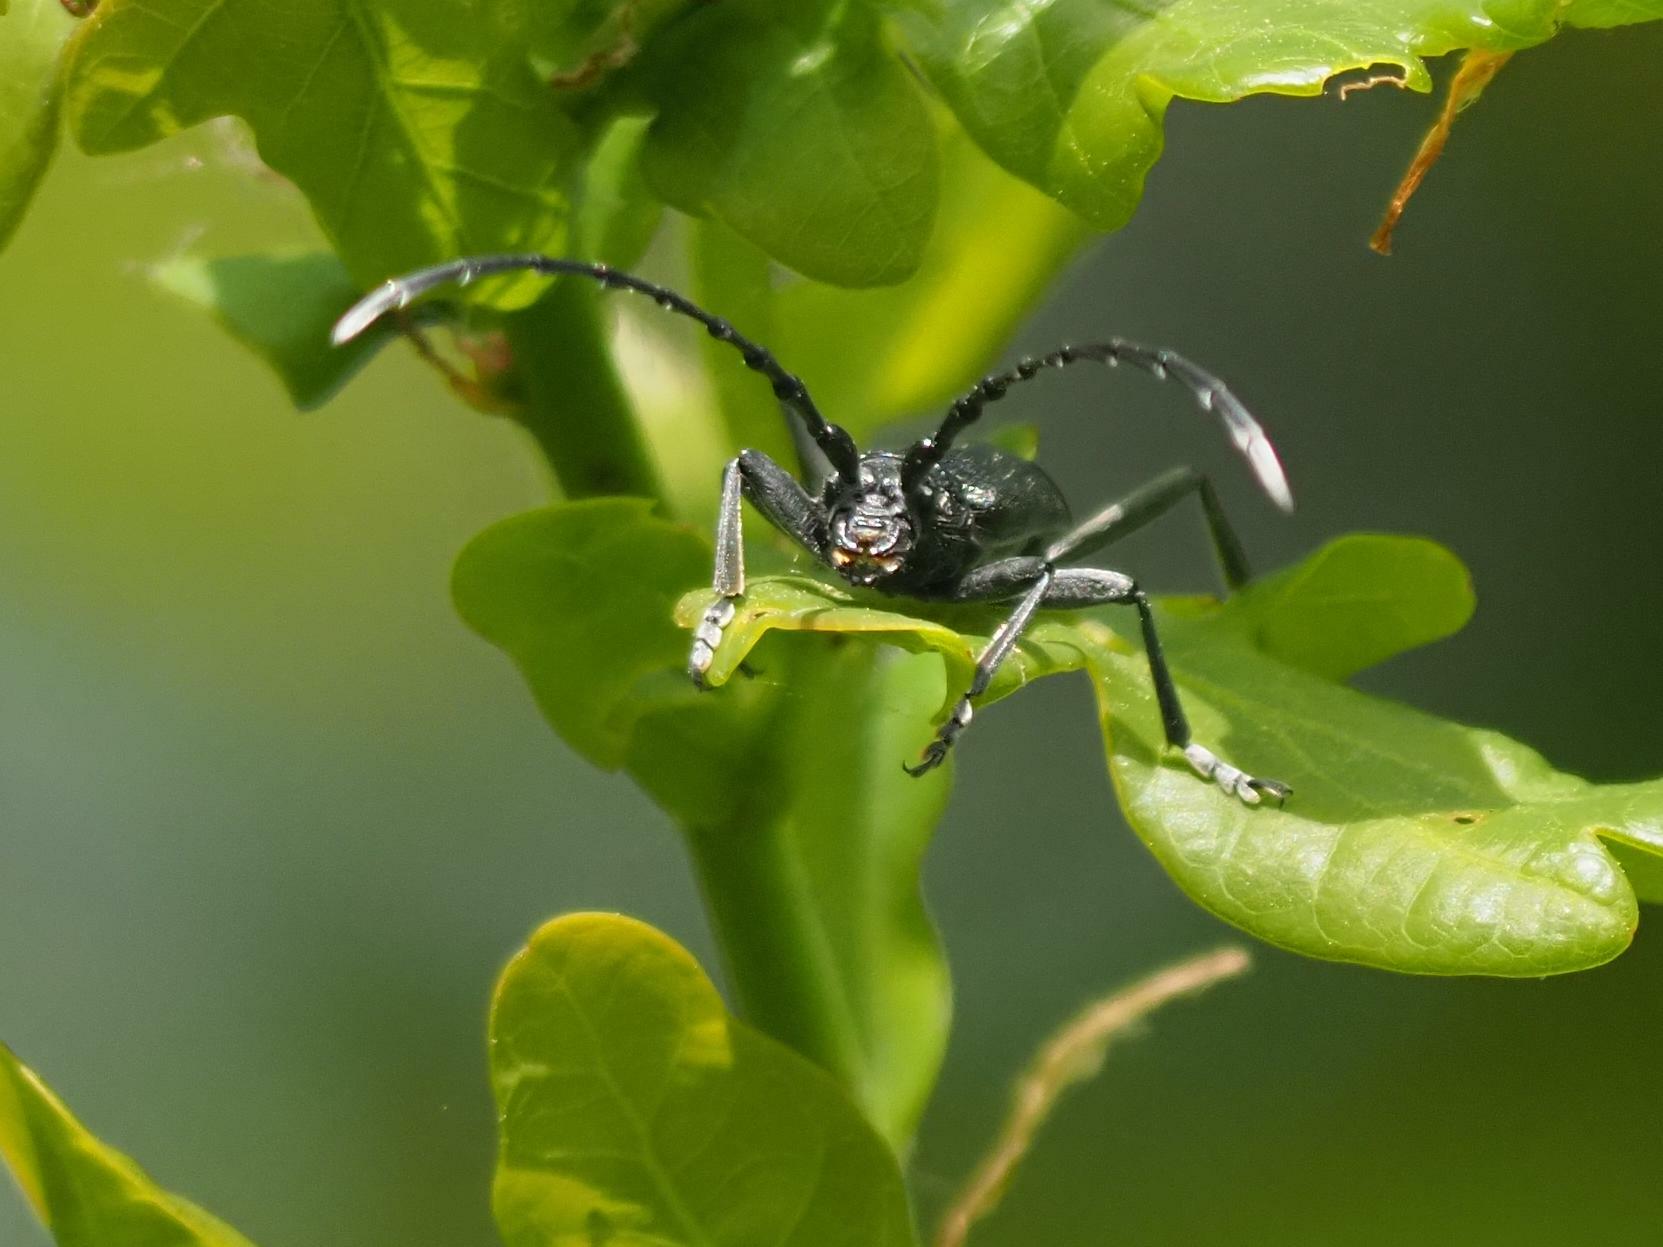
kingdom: Animalia
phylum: Arthropoda
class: Insecta
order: Coleoptera
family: Cerambycidae
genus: Cerambyx
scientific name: Cerambyx scopolii
